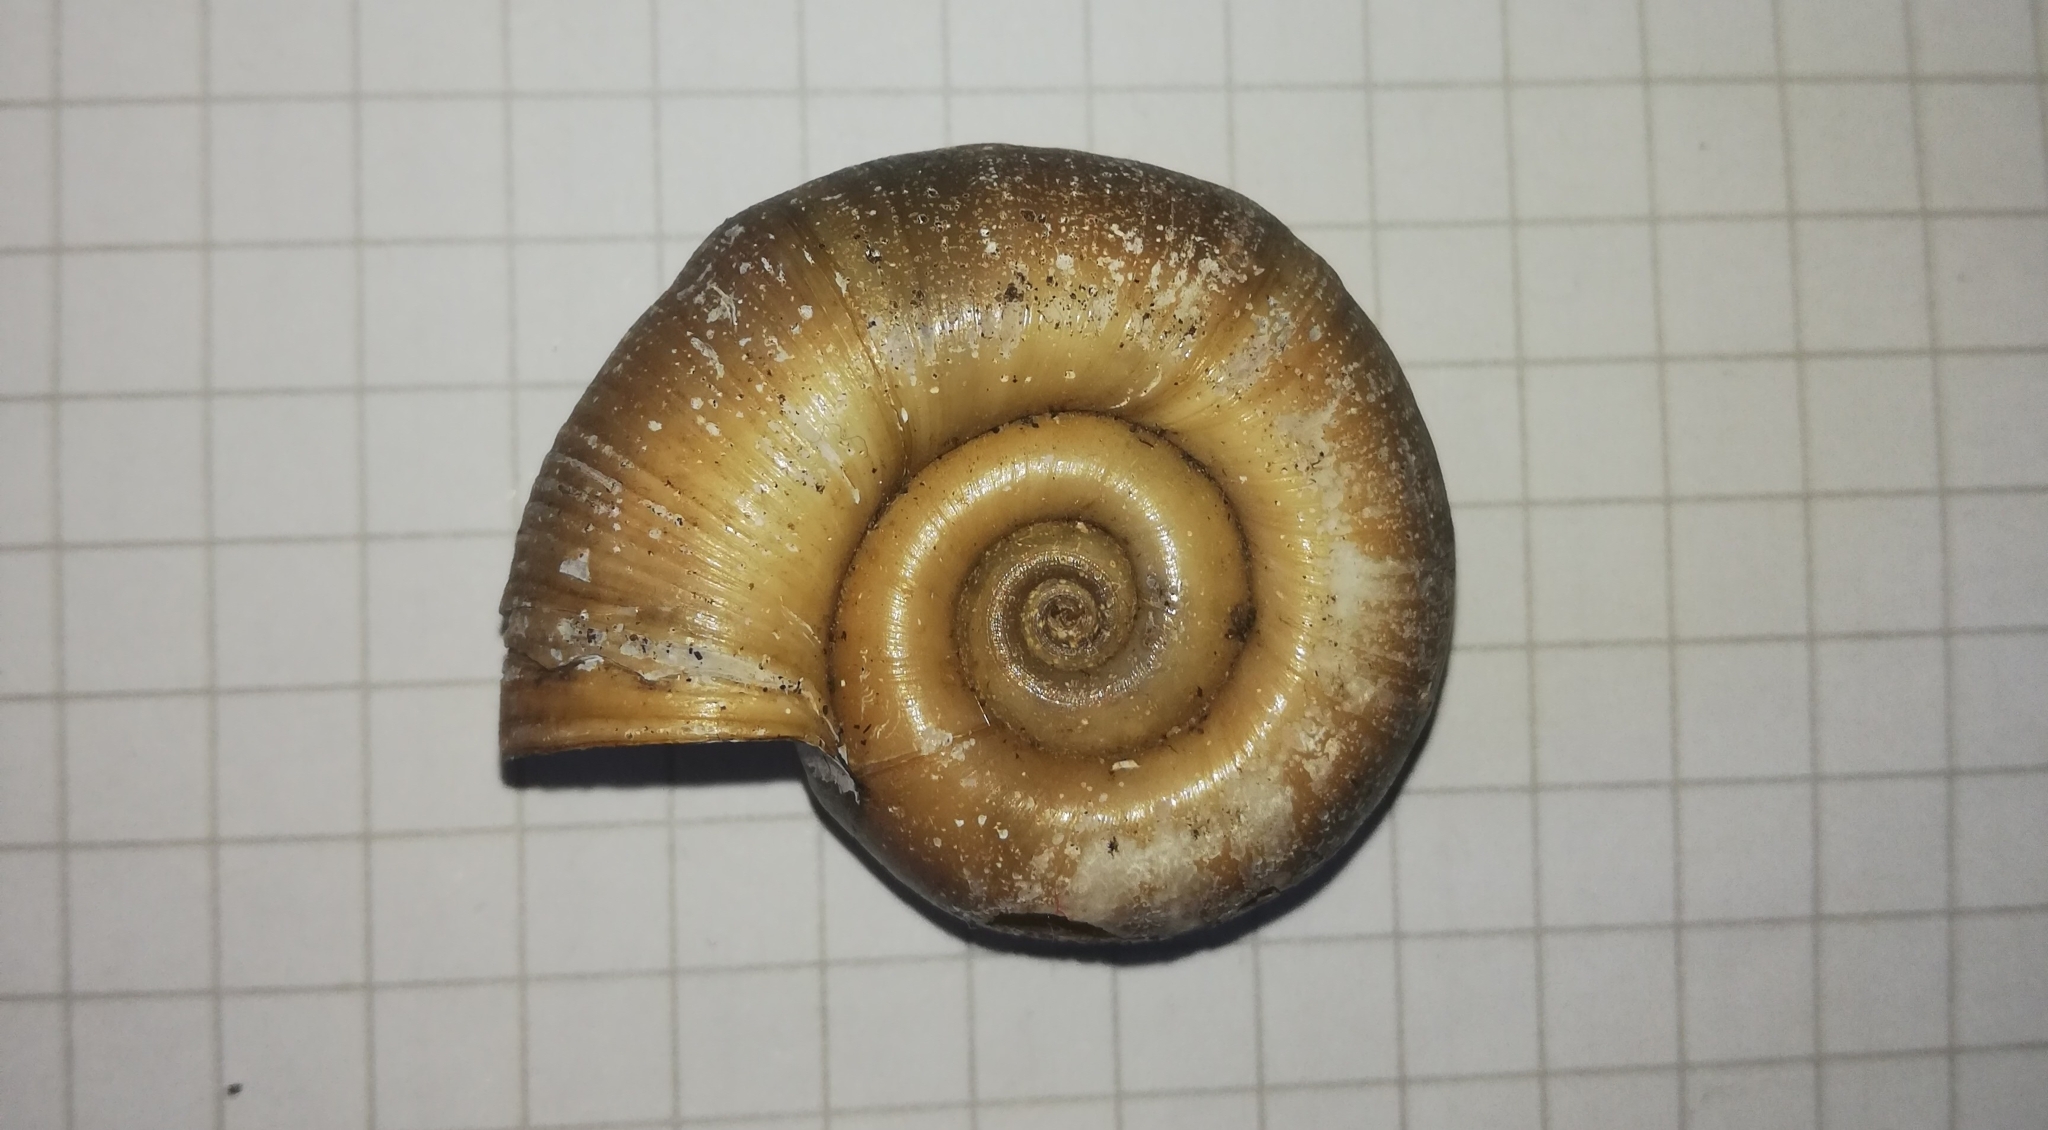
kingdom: Animalia
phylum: Mollusca
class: Gastropoda
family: Planorbidae
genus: Planorbarius
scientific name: Planorbarius corneus
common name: Great ramshorn
